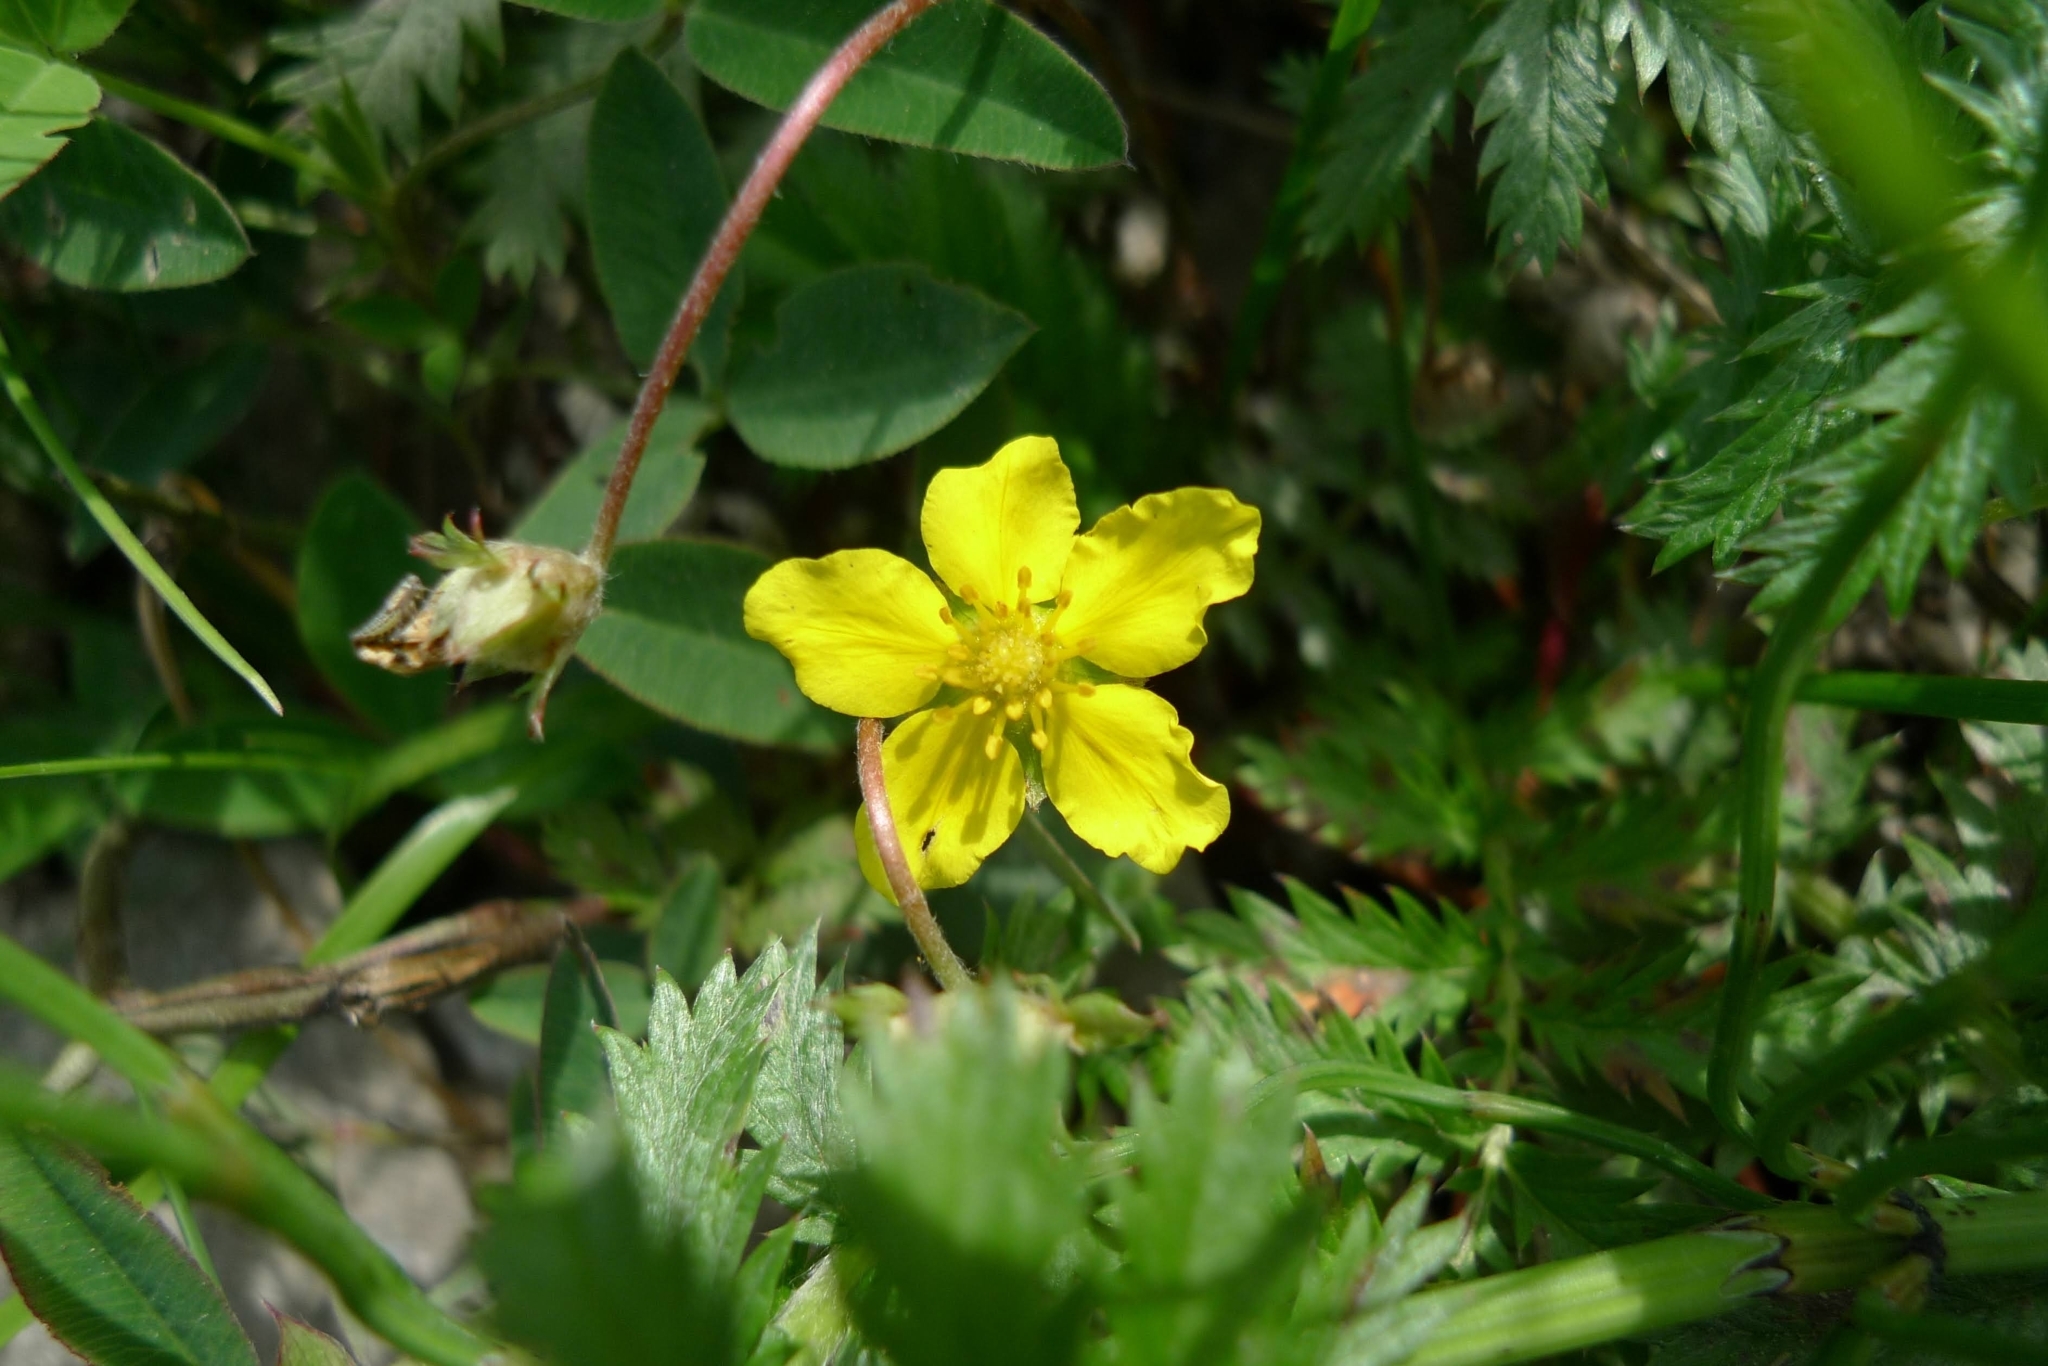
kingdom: Plantae
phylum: Tracheophyta
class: Magnoliopsida
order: Rosales
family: Rosaceae
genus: Argentina
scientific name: Argentina anserina
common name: Common silverweed
